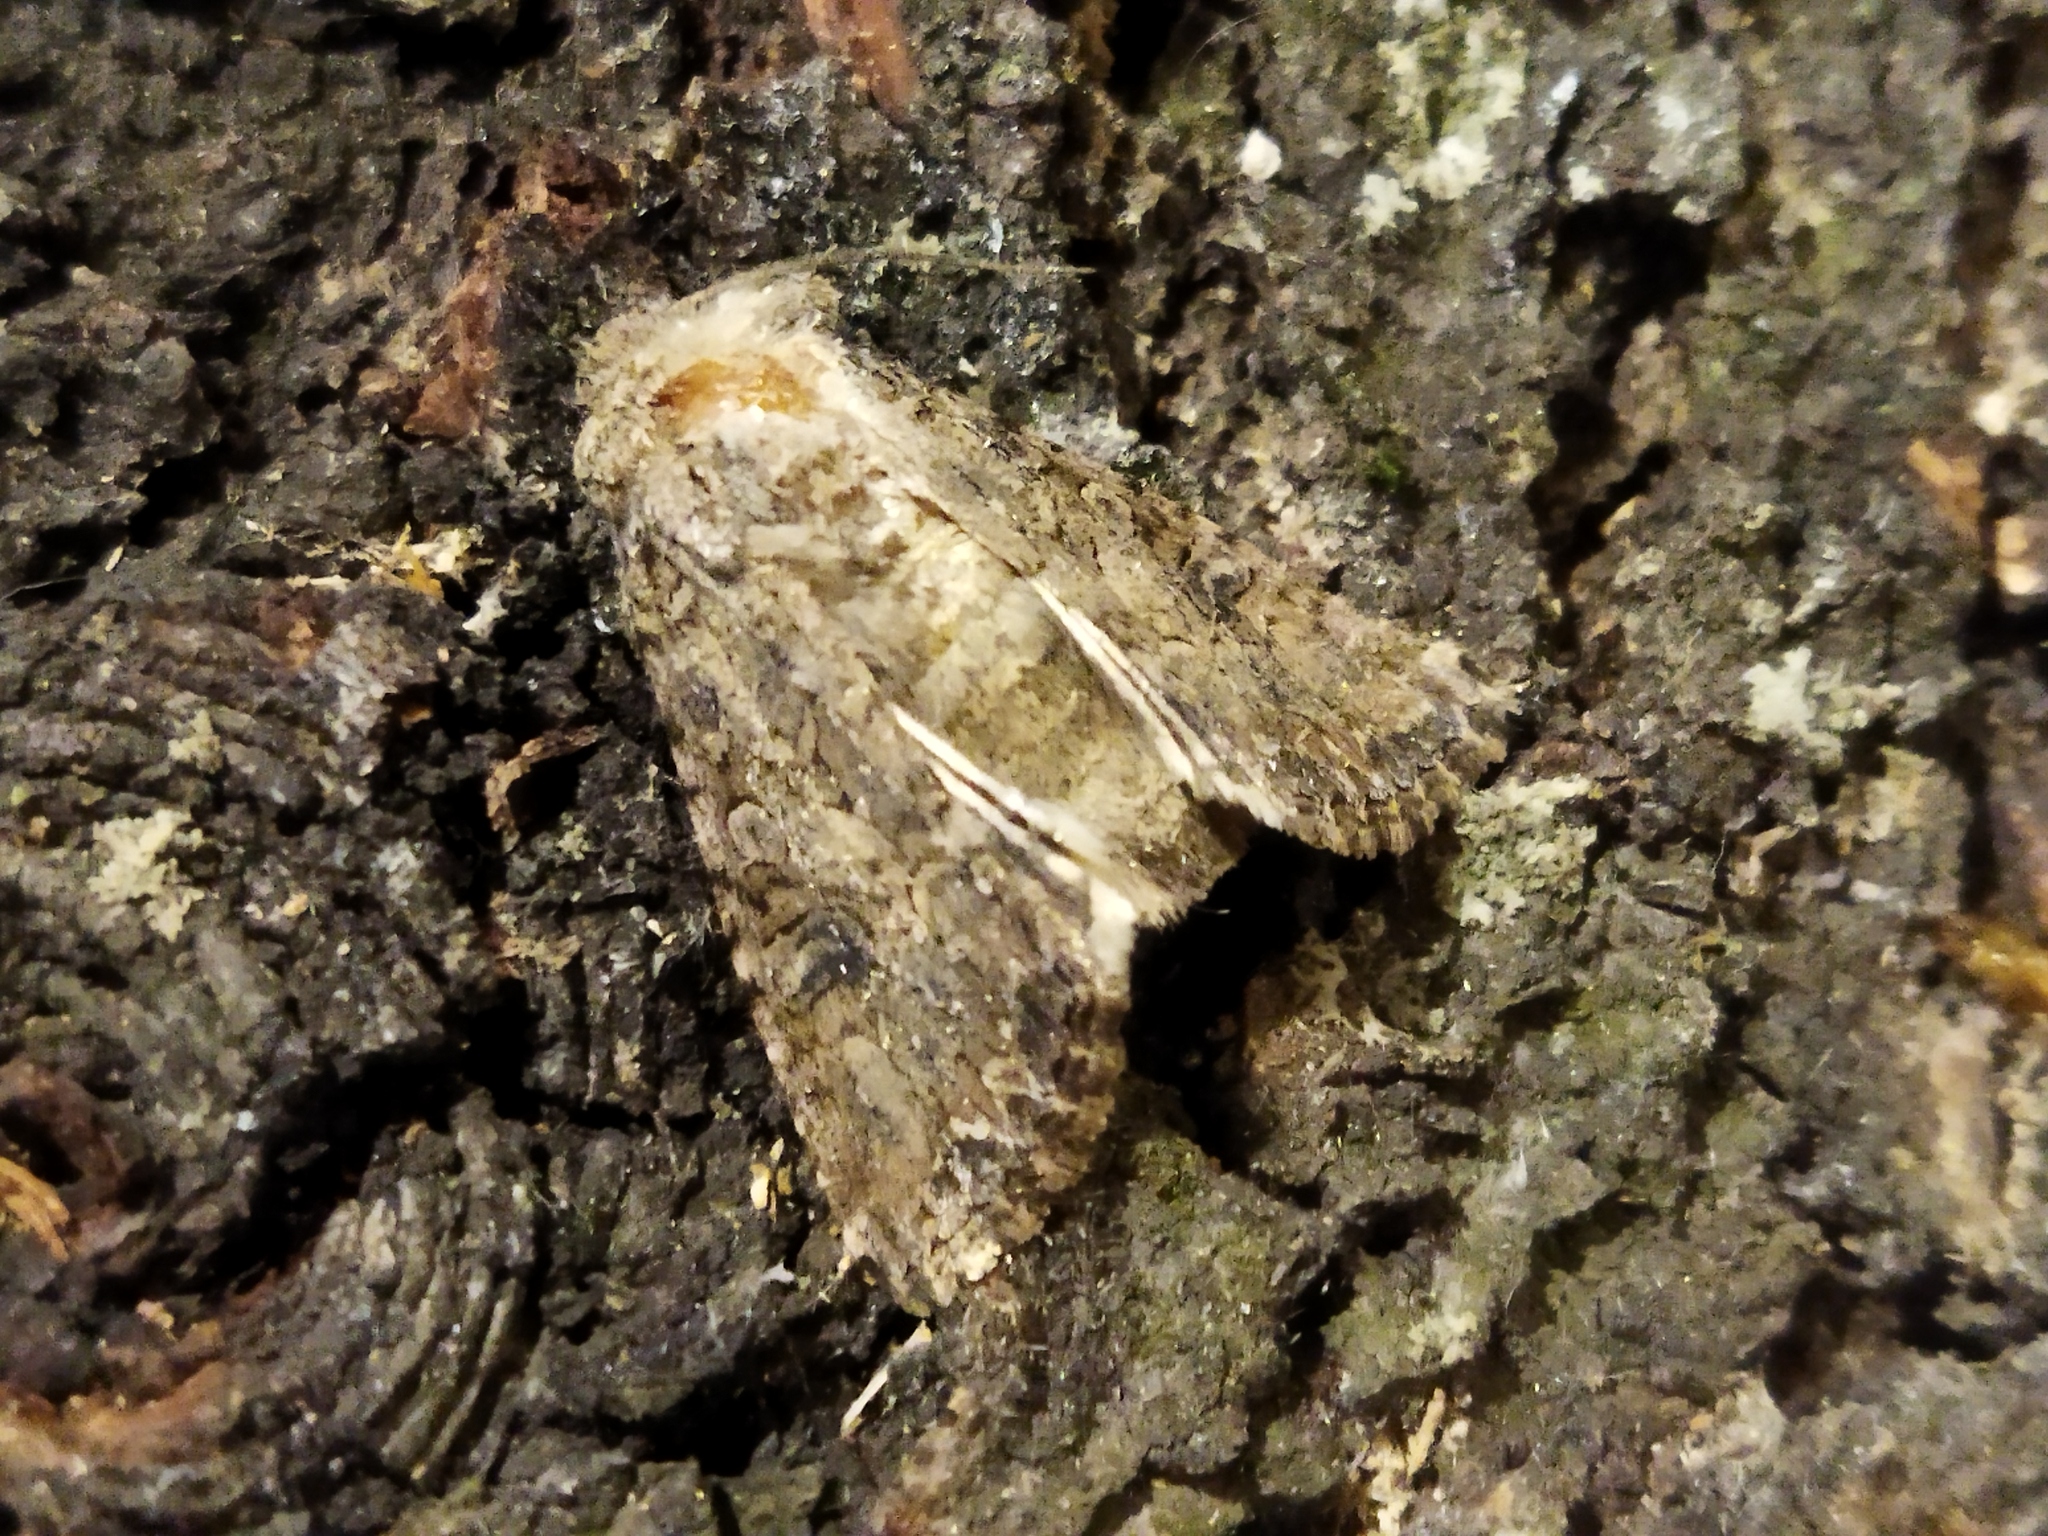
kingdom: Animalia
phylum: Arthropoda
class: Insecta
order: Lepidoptera
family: Noctuidae
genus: Anarta
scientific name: Anarta trifolii
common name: Clover cutworm moth
